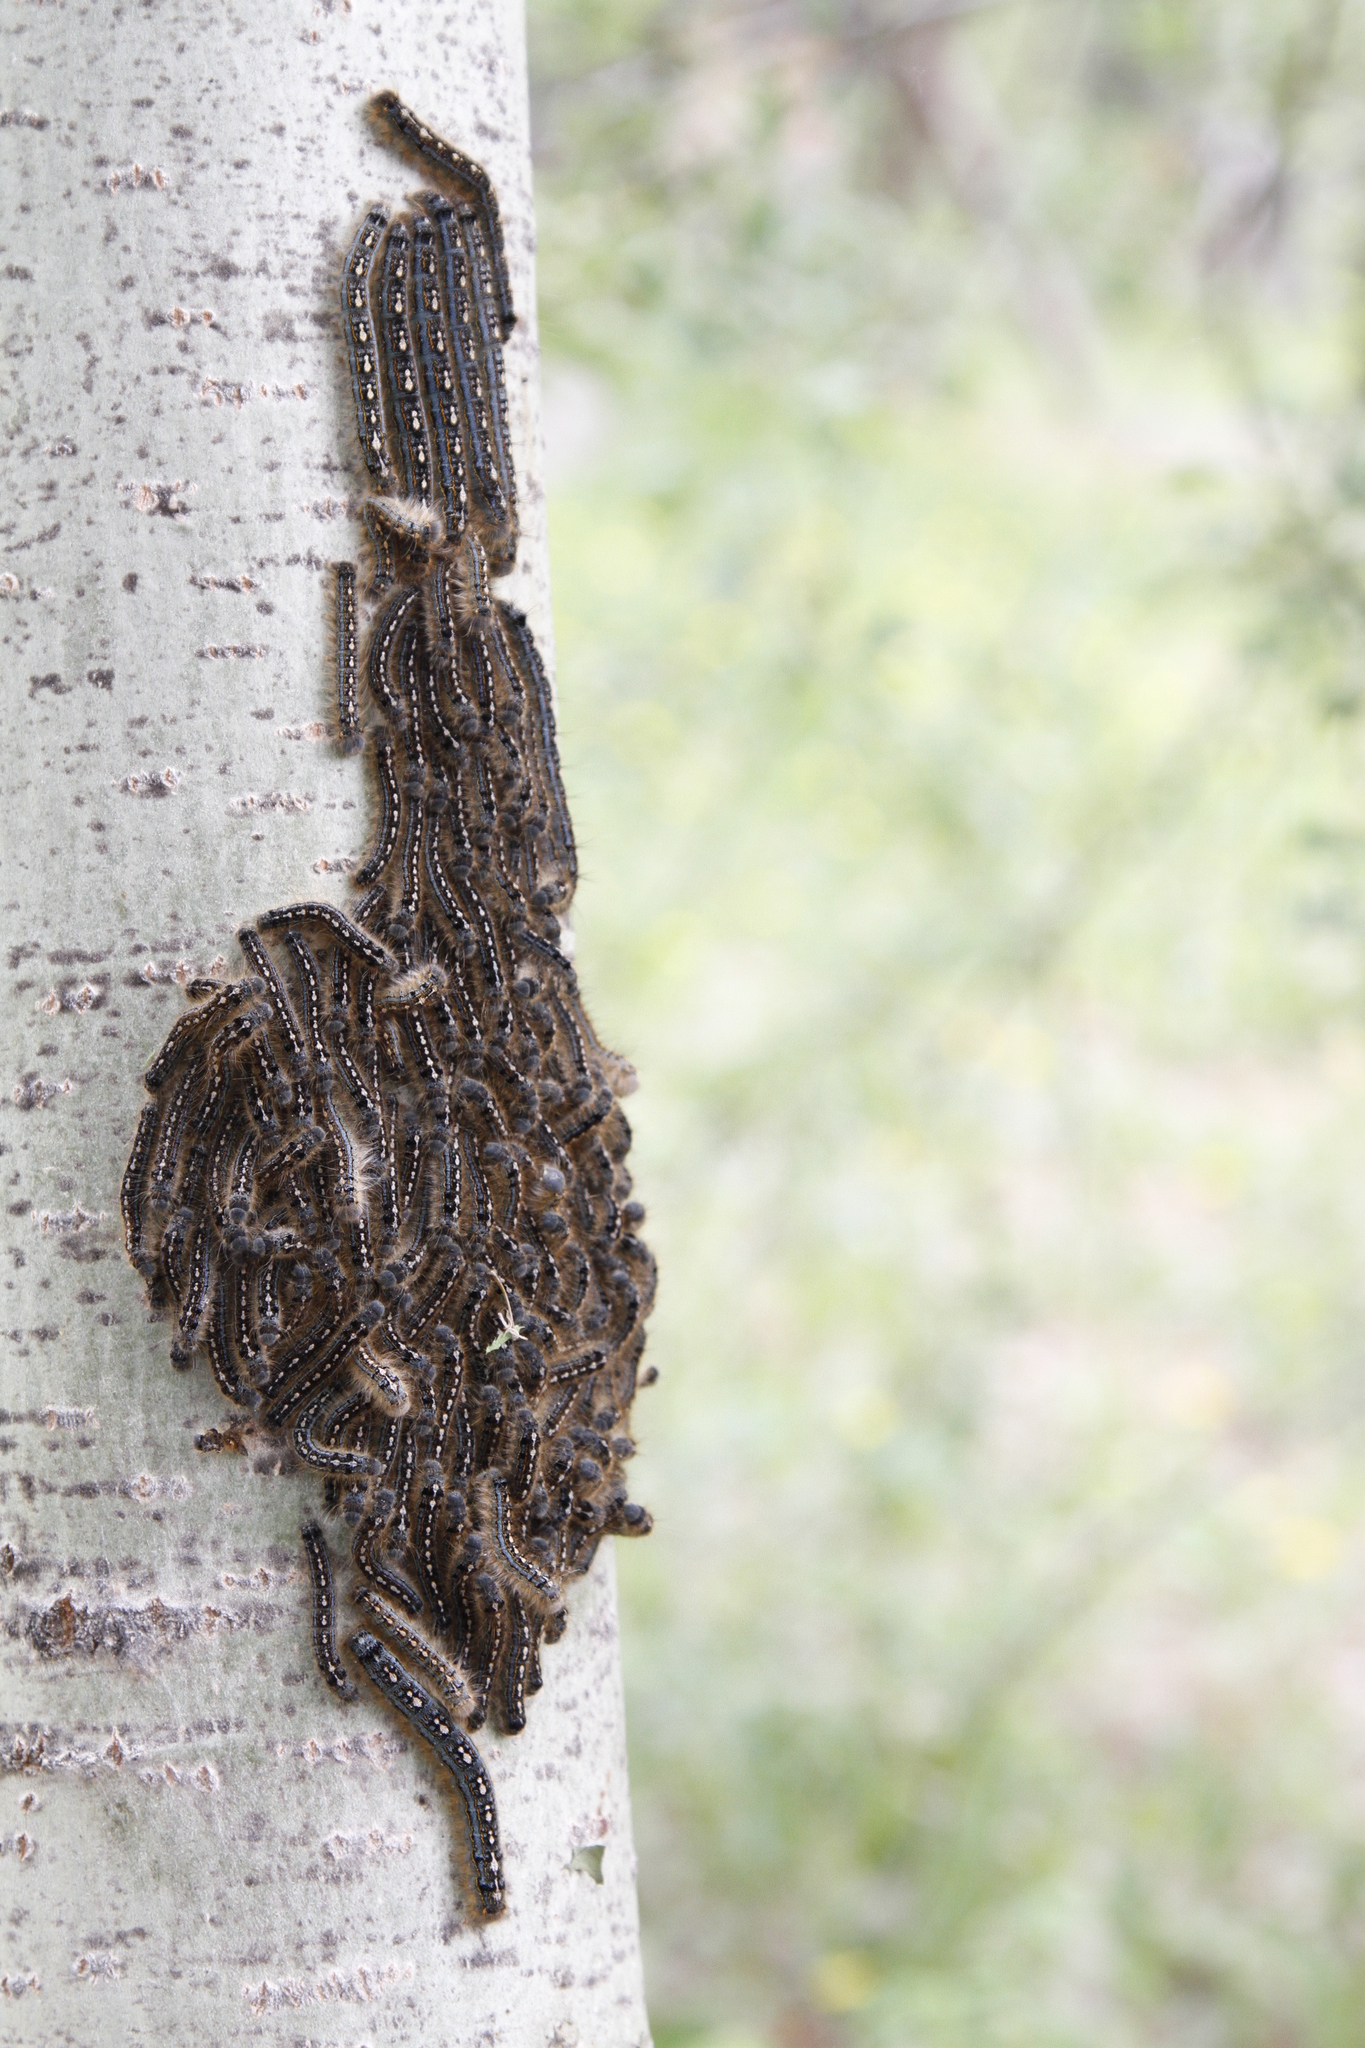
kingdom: Animalia
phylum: Arthropoda
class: Insecta
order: Lepidoptera
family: Lasiocampidae
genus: Malacosoma
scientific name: Malacosoma disstria
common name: Forest tent caterpillar
